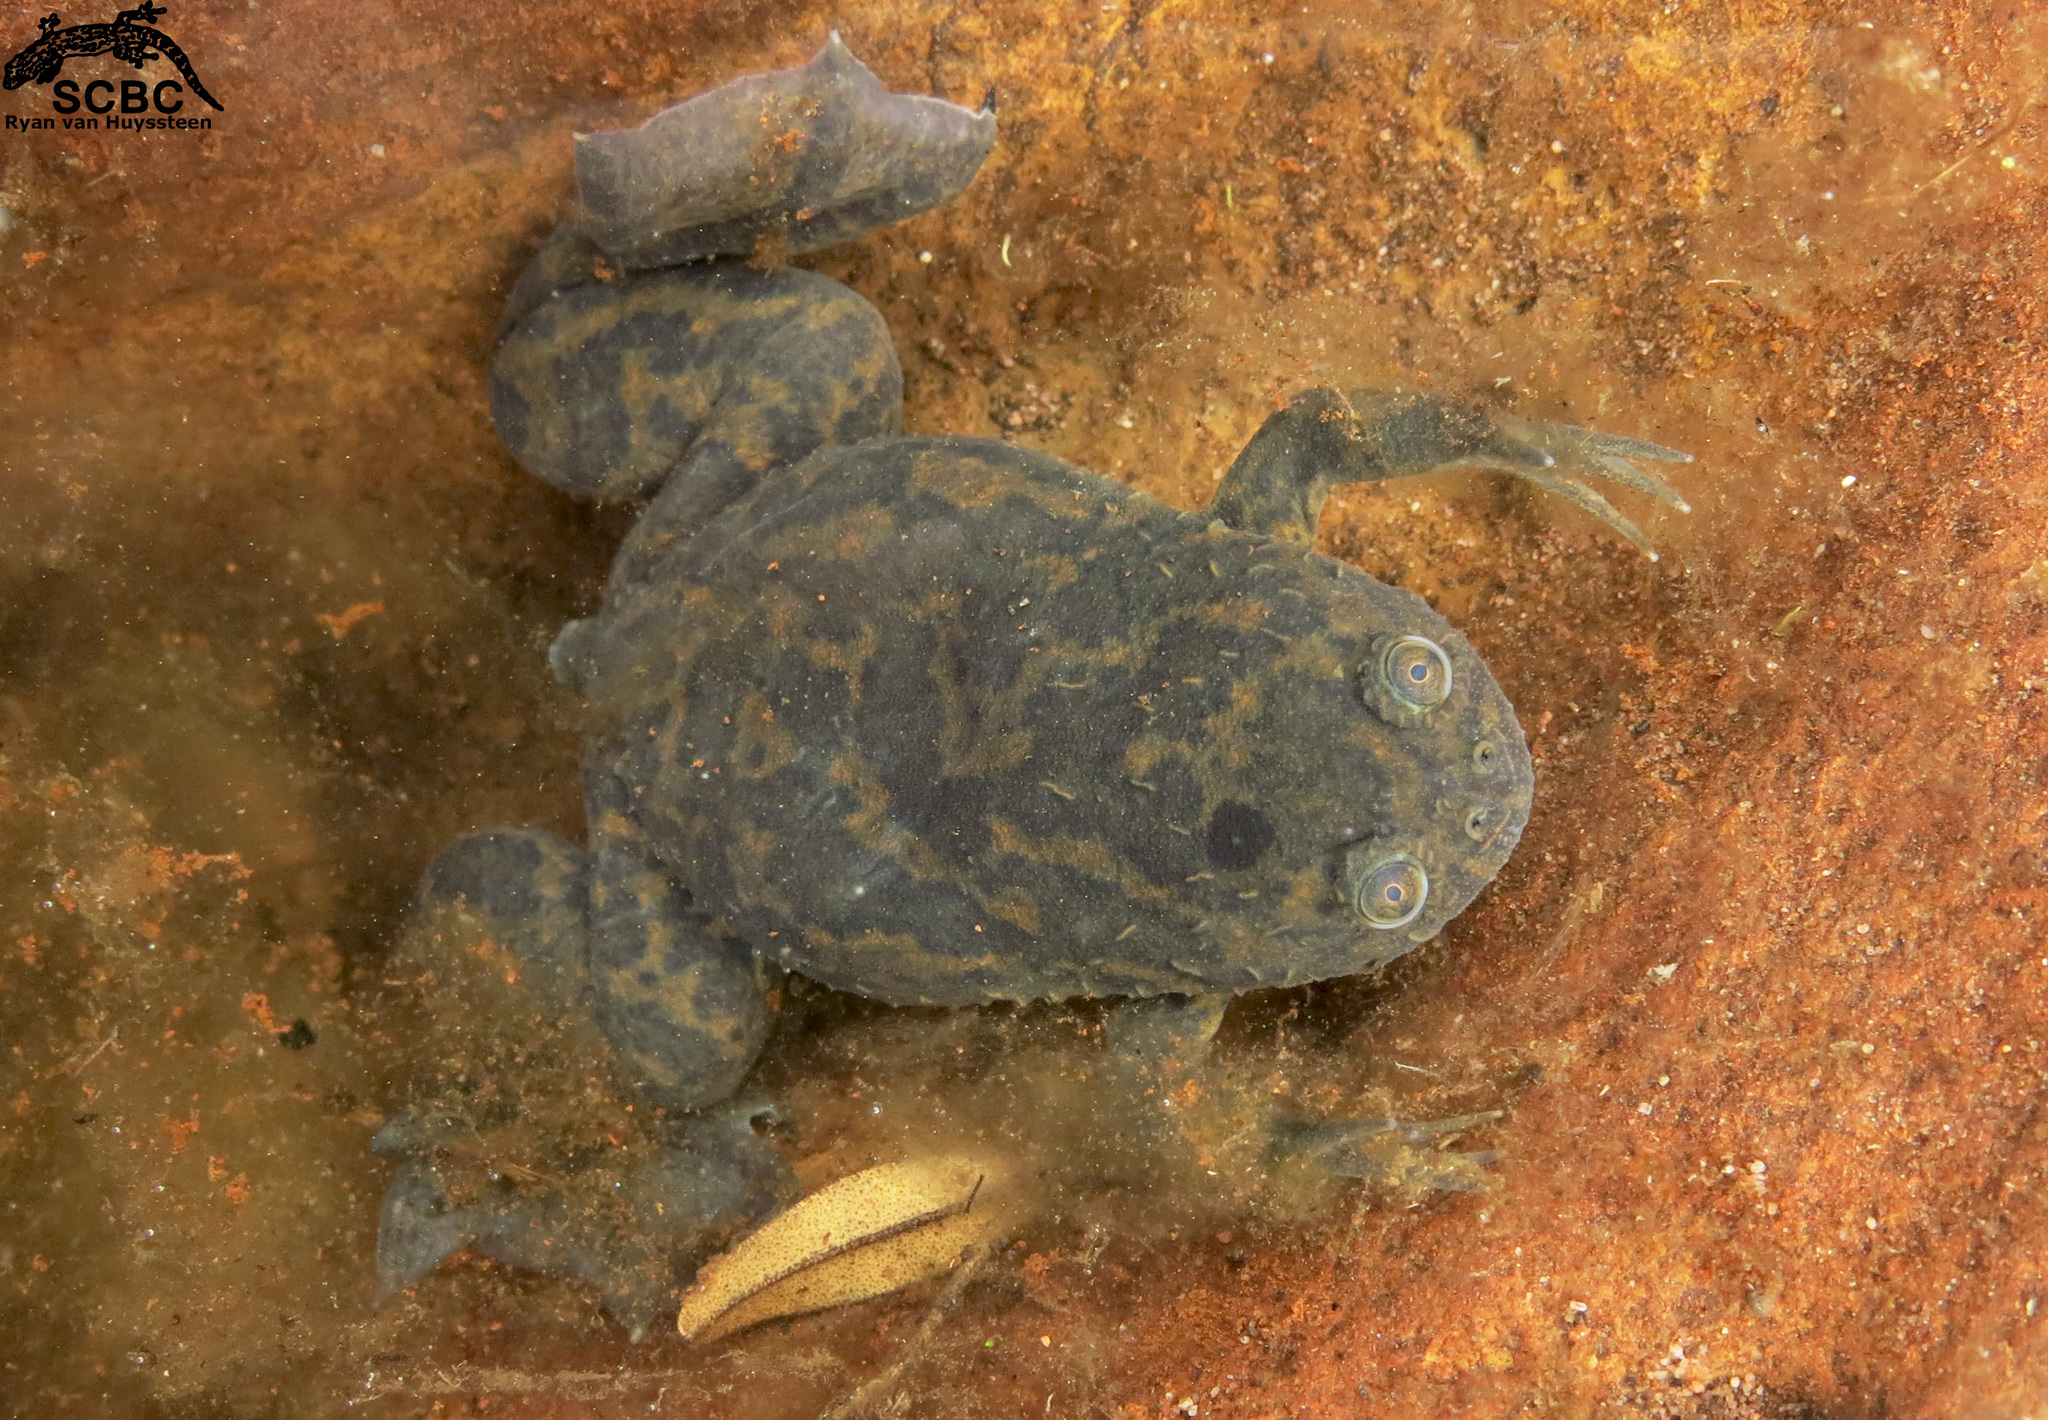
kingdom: Animalia
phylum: Chordata
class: Amphibia
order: Anura
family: Pipidae
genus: Xenopus
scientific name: Xenopus laevis
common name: African clawed frog
